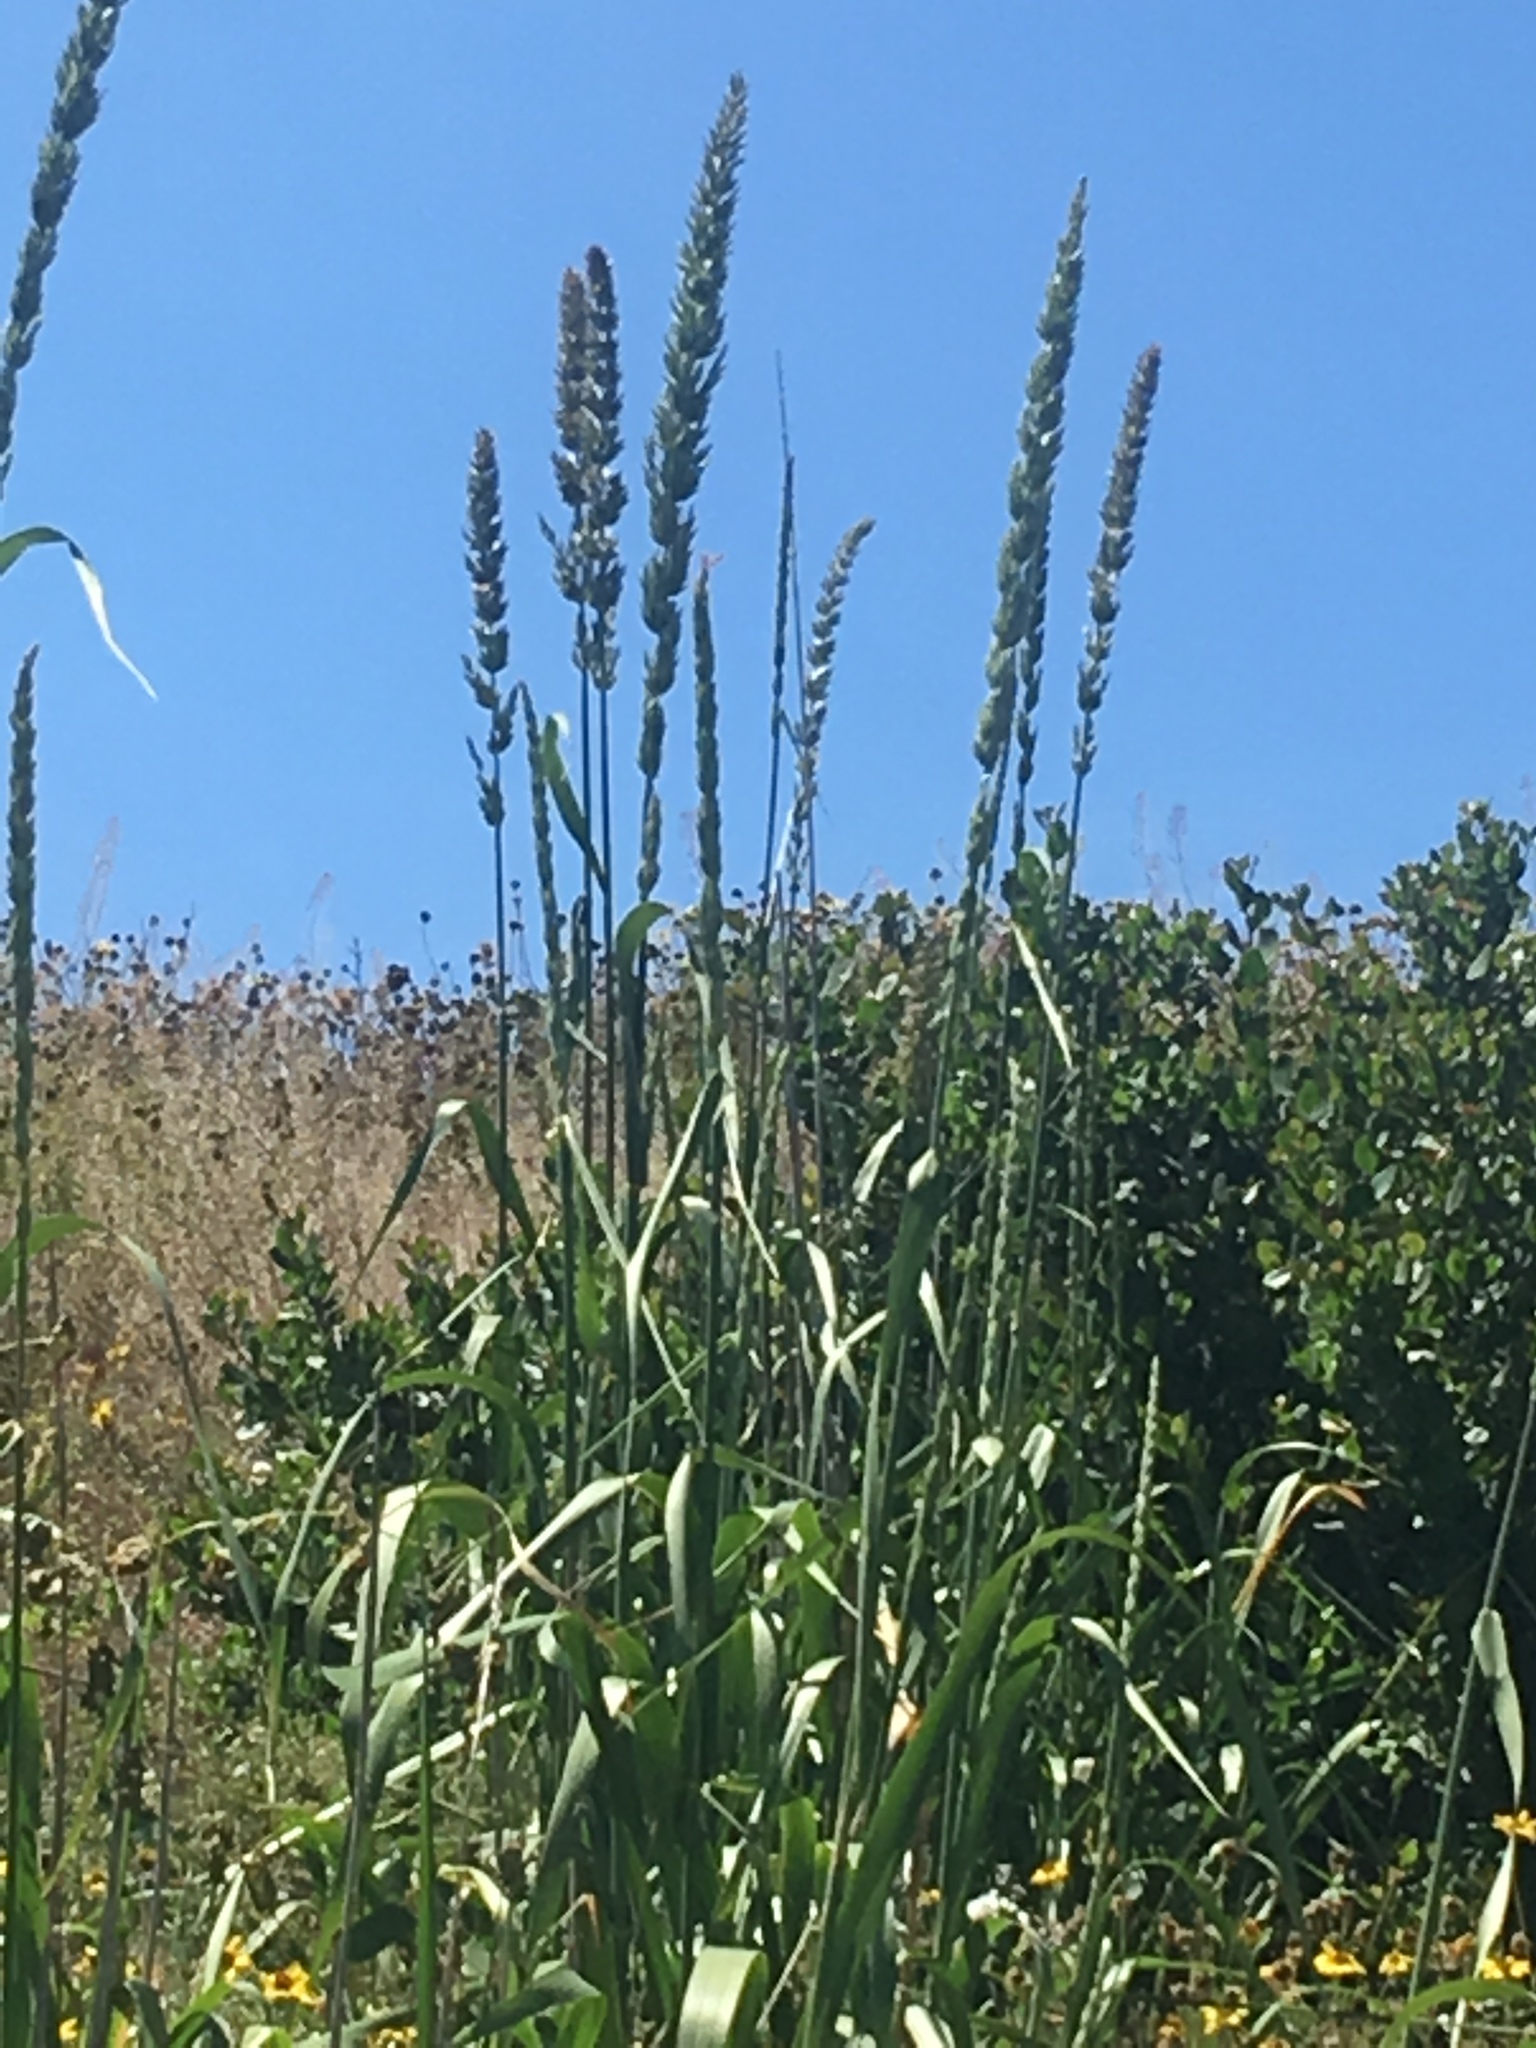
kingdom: Plantae
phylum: Tracheophyta
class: Liliopsida
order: Poales
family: Poaceae
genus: Leymus
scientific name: Leymus condensatus
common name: Giant wild rye
